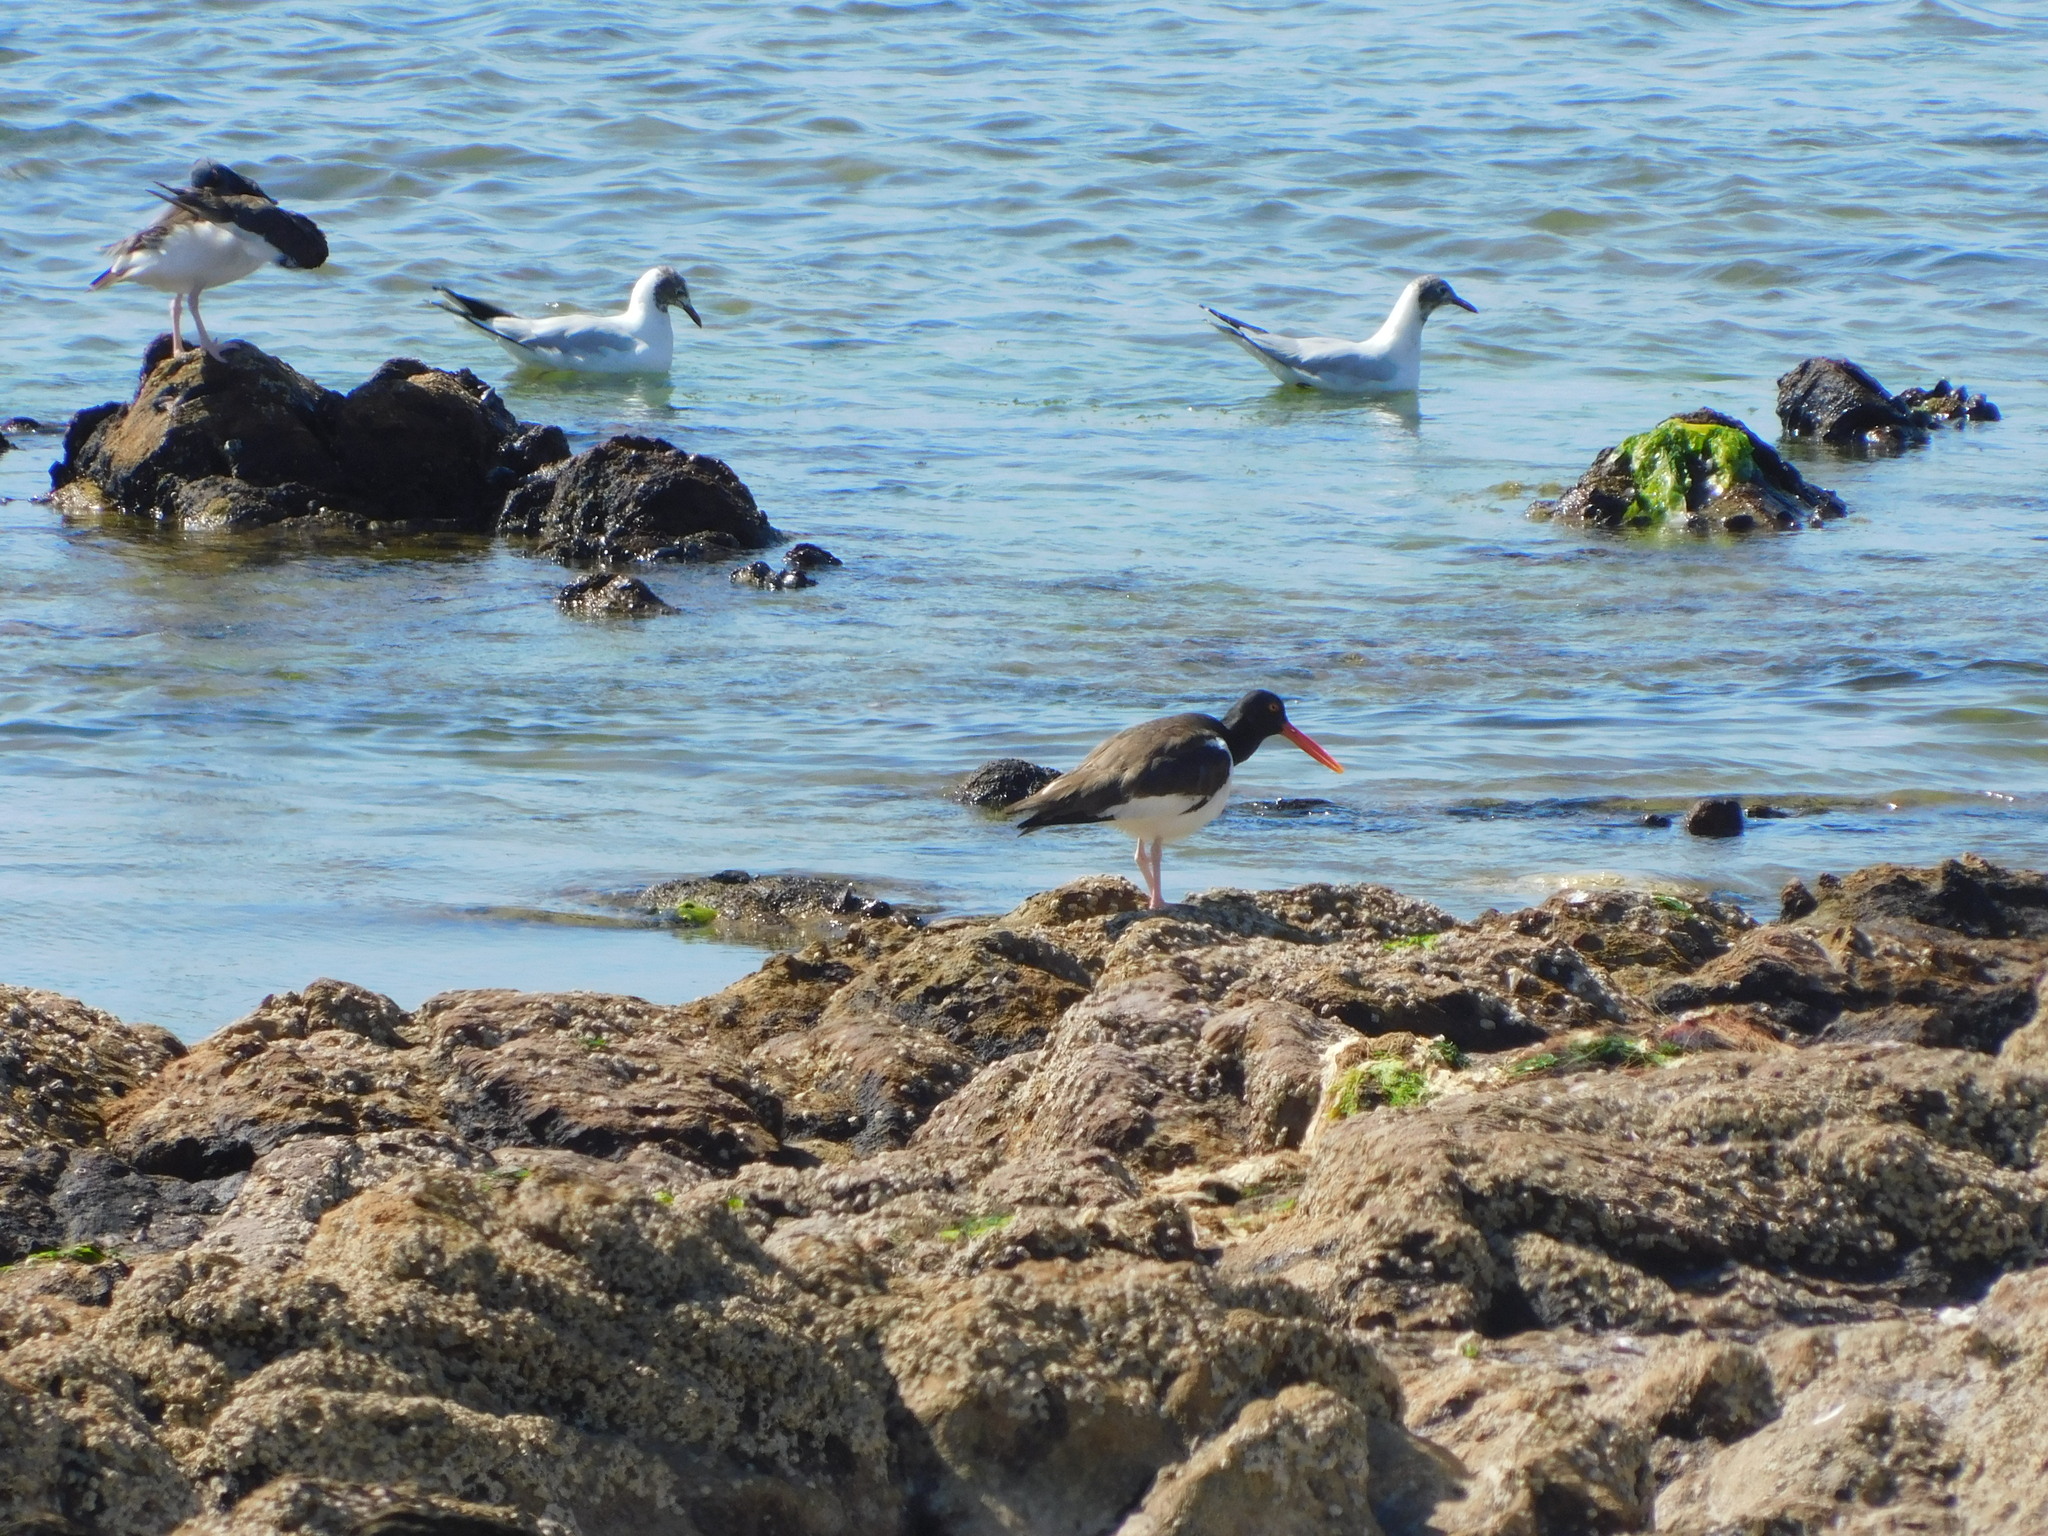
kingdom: Animalia
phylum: Chordata
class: Aves
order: Charadriiformes
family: Laridae
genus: Chroicocephalus
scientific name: Chroicocephalus maculipennis
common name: Brown-hooded gull
